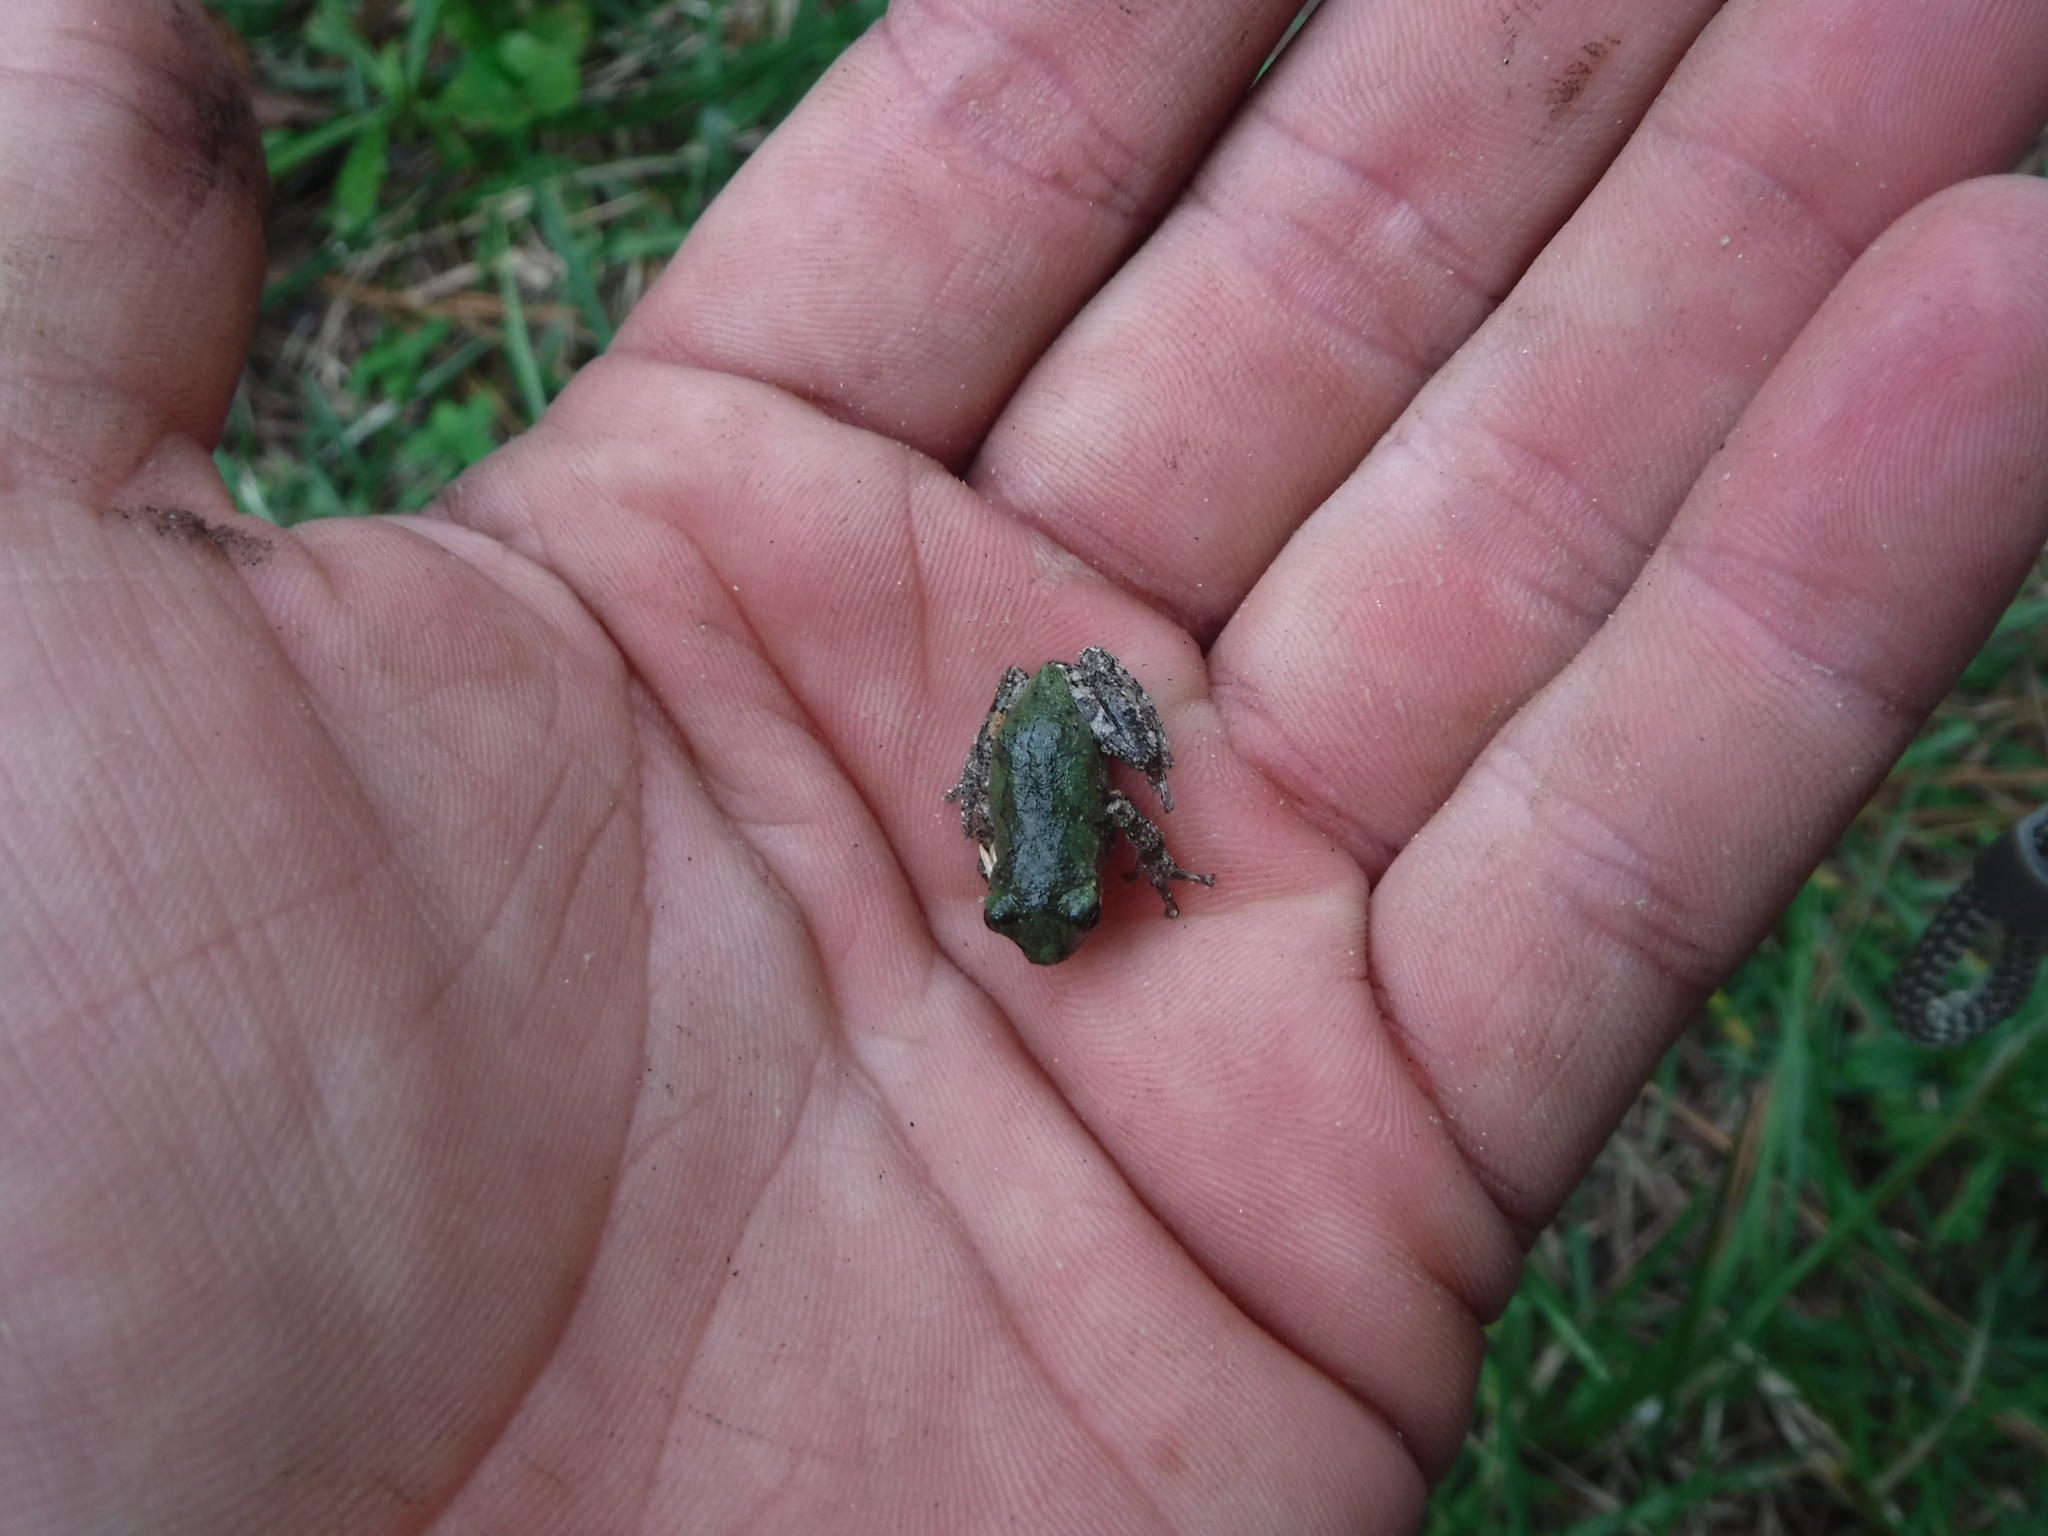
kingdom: Animalia
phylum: Chordata
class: Amphibia
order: Anura
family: Hylidae
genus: Dryophytes
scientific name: Dryophytes chrysoscelis
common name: Cope's gray treefrog
